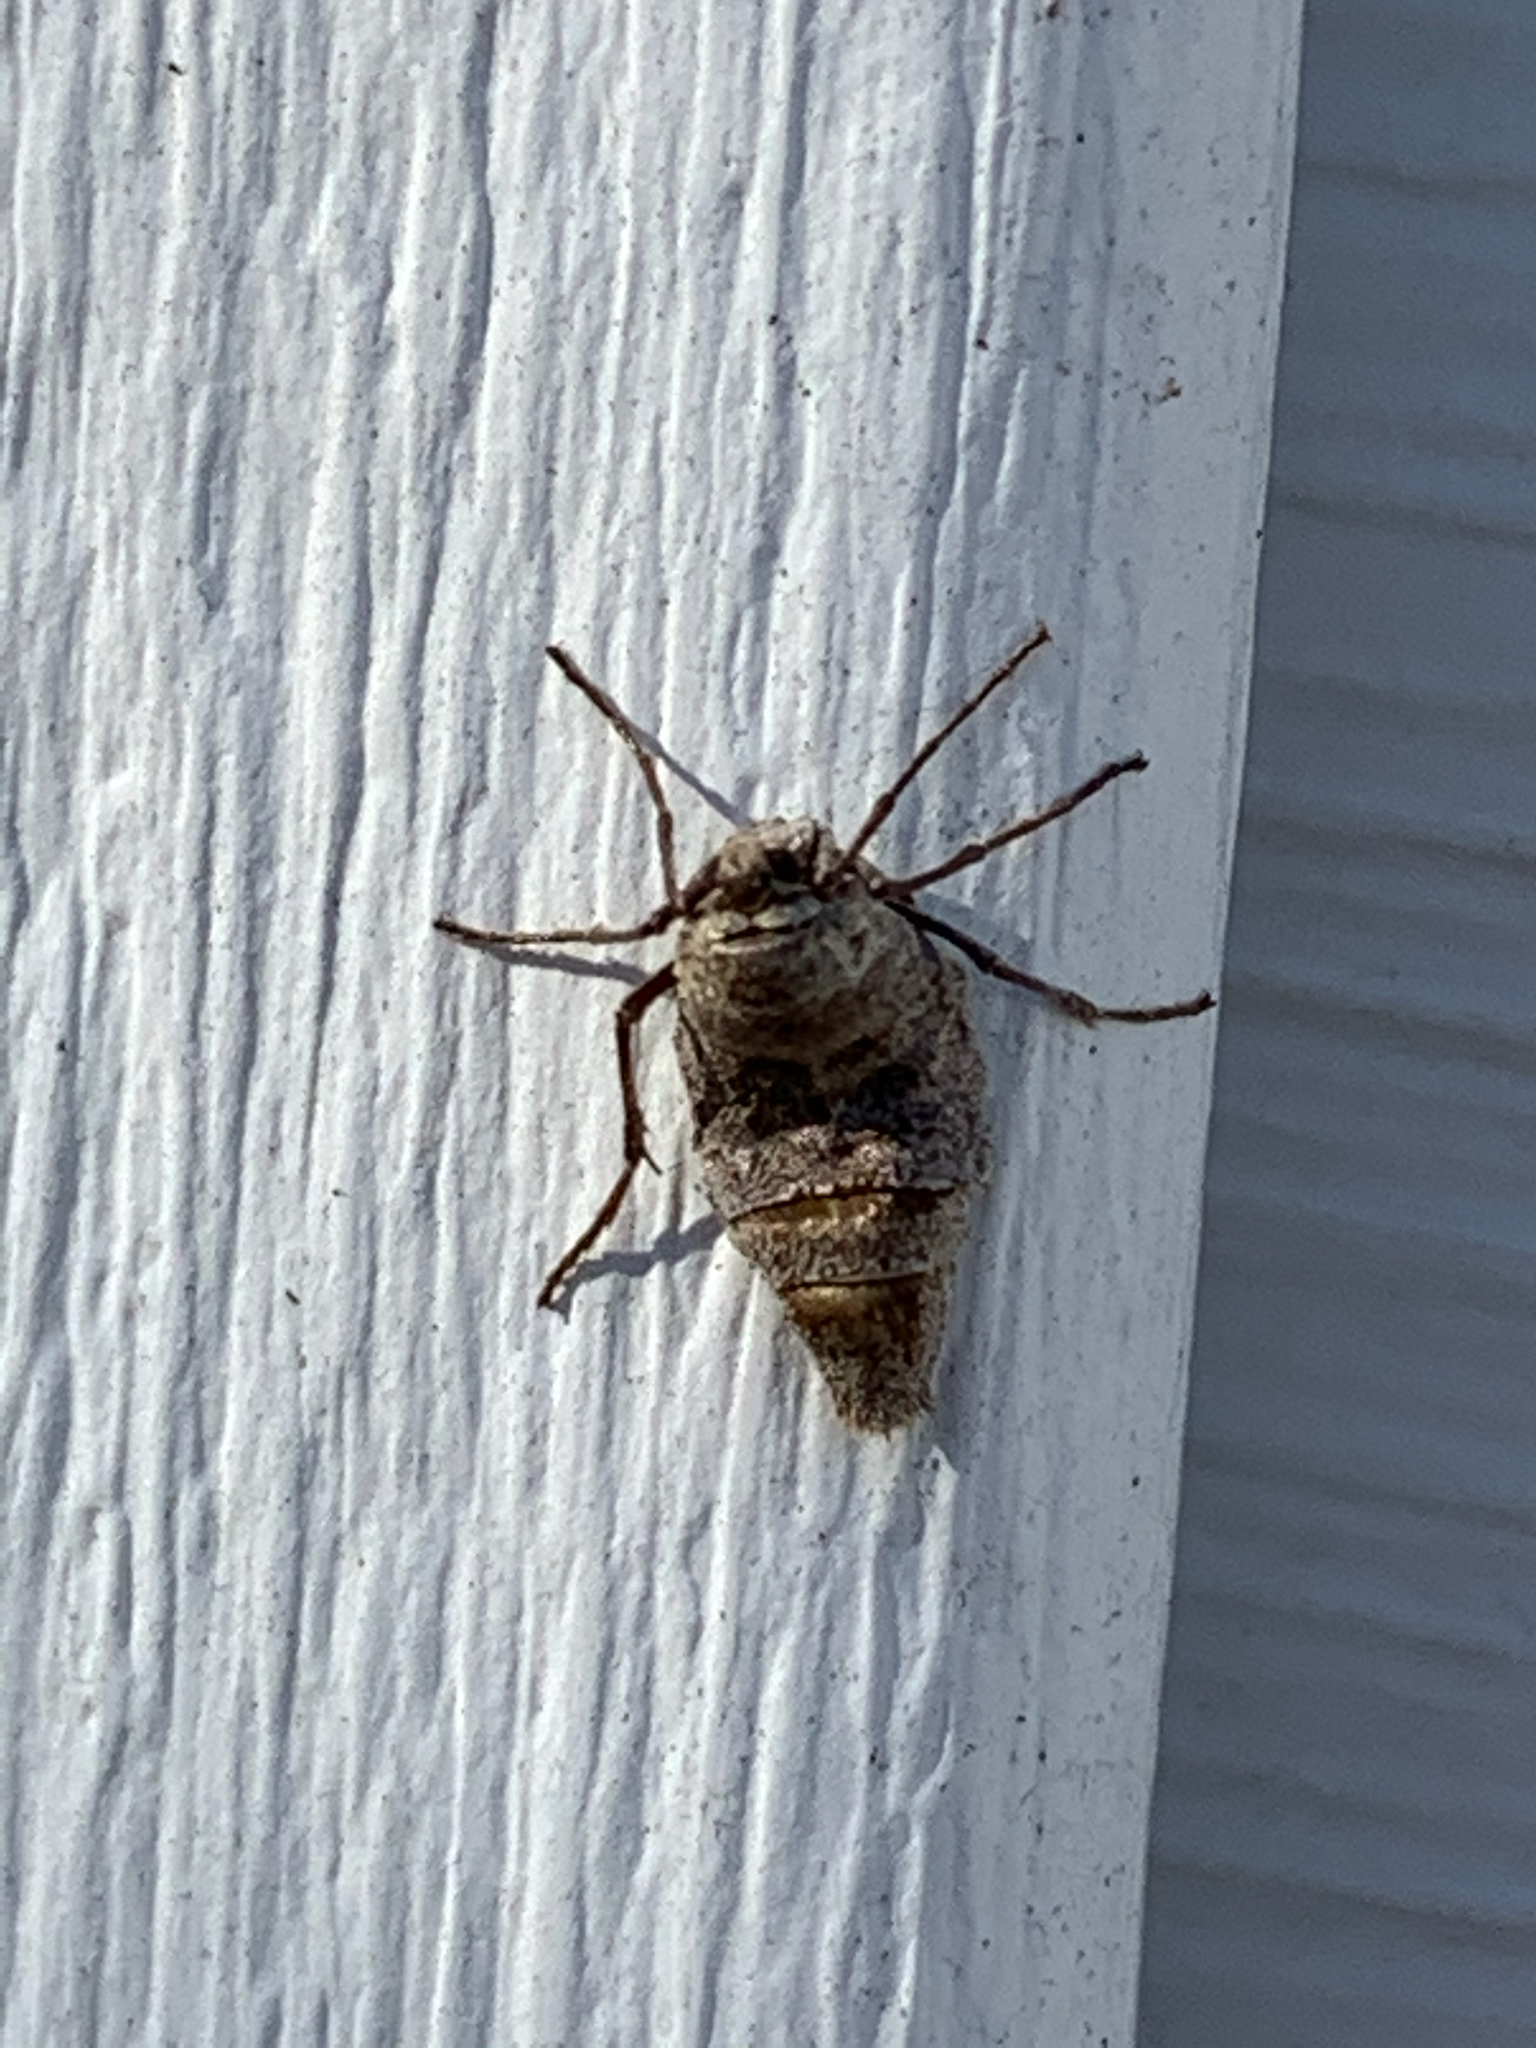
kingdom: Animalia
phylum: Arthropoda
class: Insecta
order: Lepidoptera
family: Geometridae
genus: Alsophila
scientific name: Alsophila pometaria
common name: Fall cankerworm
